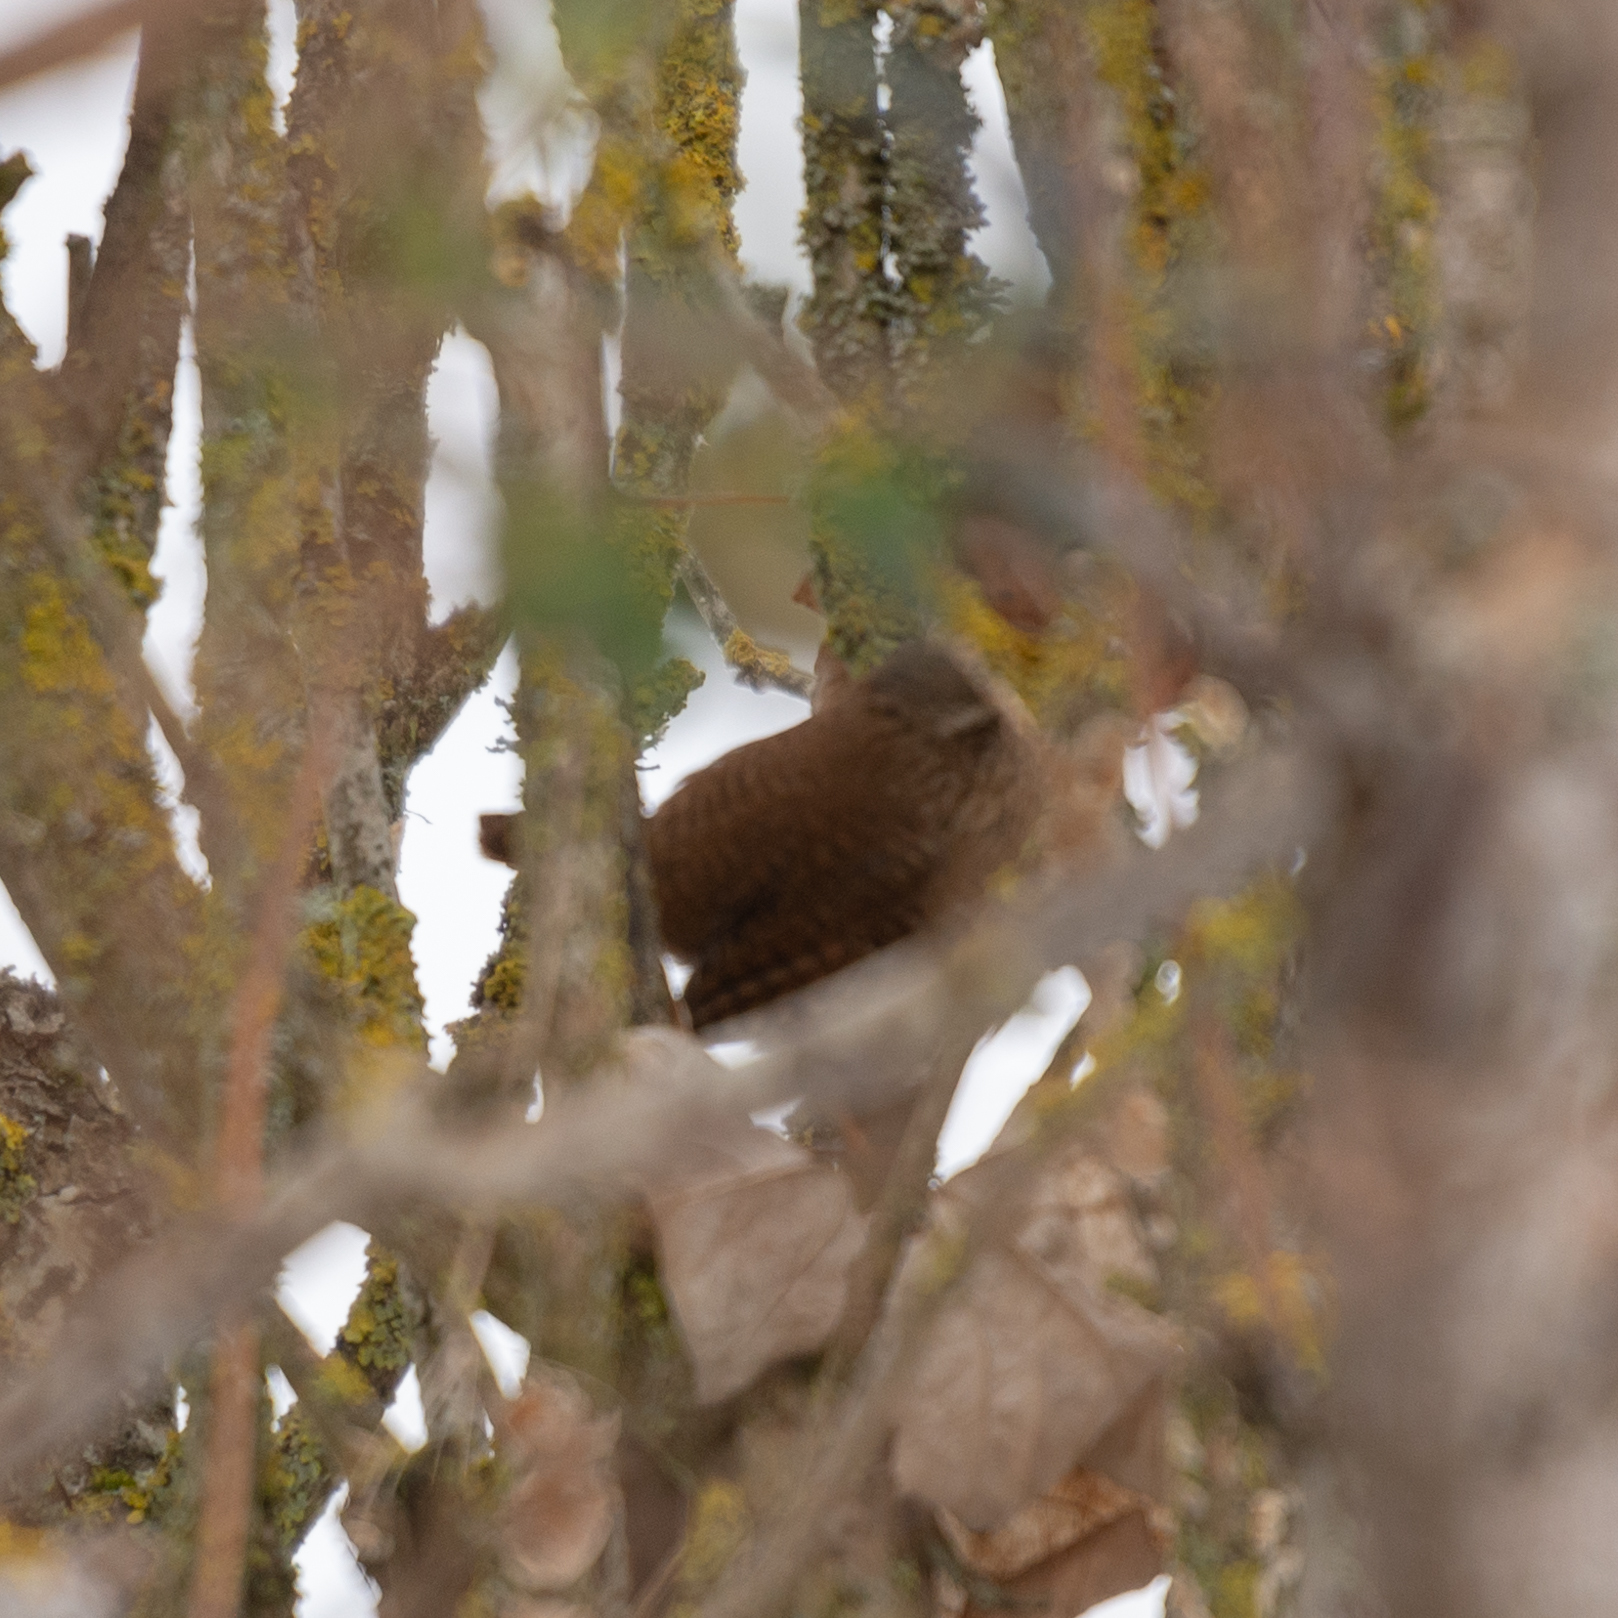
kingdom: Animalia
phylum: Chordata
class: Aves
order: Passeriformes
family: Troglodytidae
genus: Troglodytes
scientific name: Troglodytes troglodytes
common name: Eurasian wren
